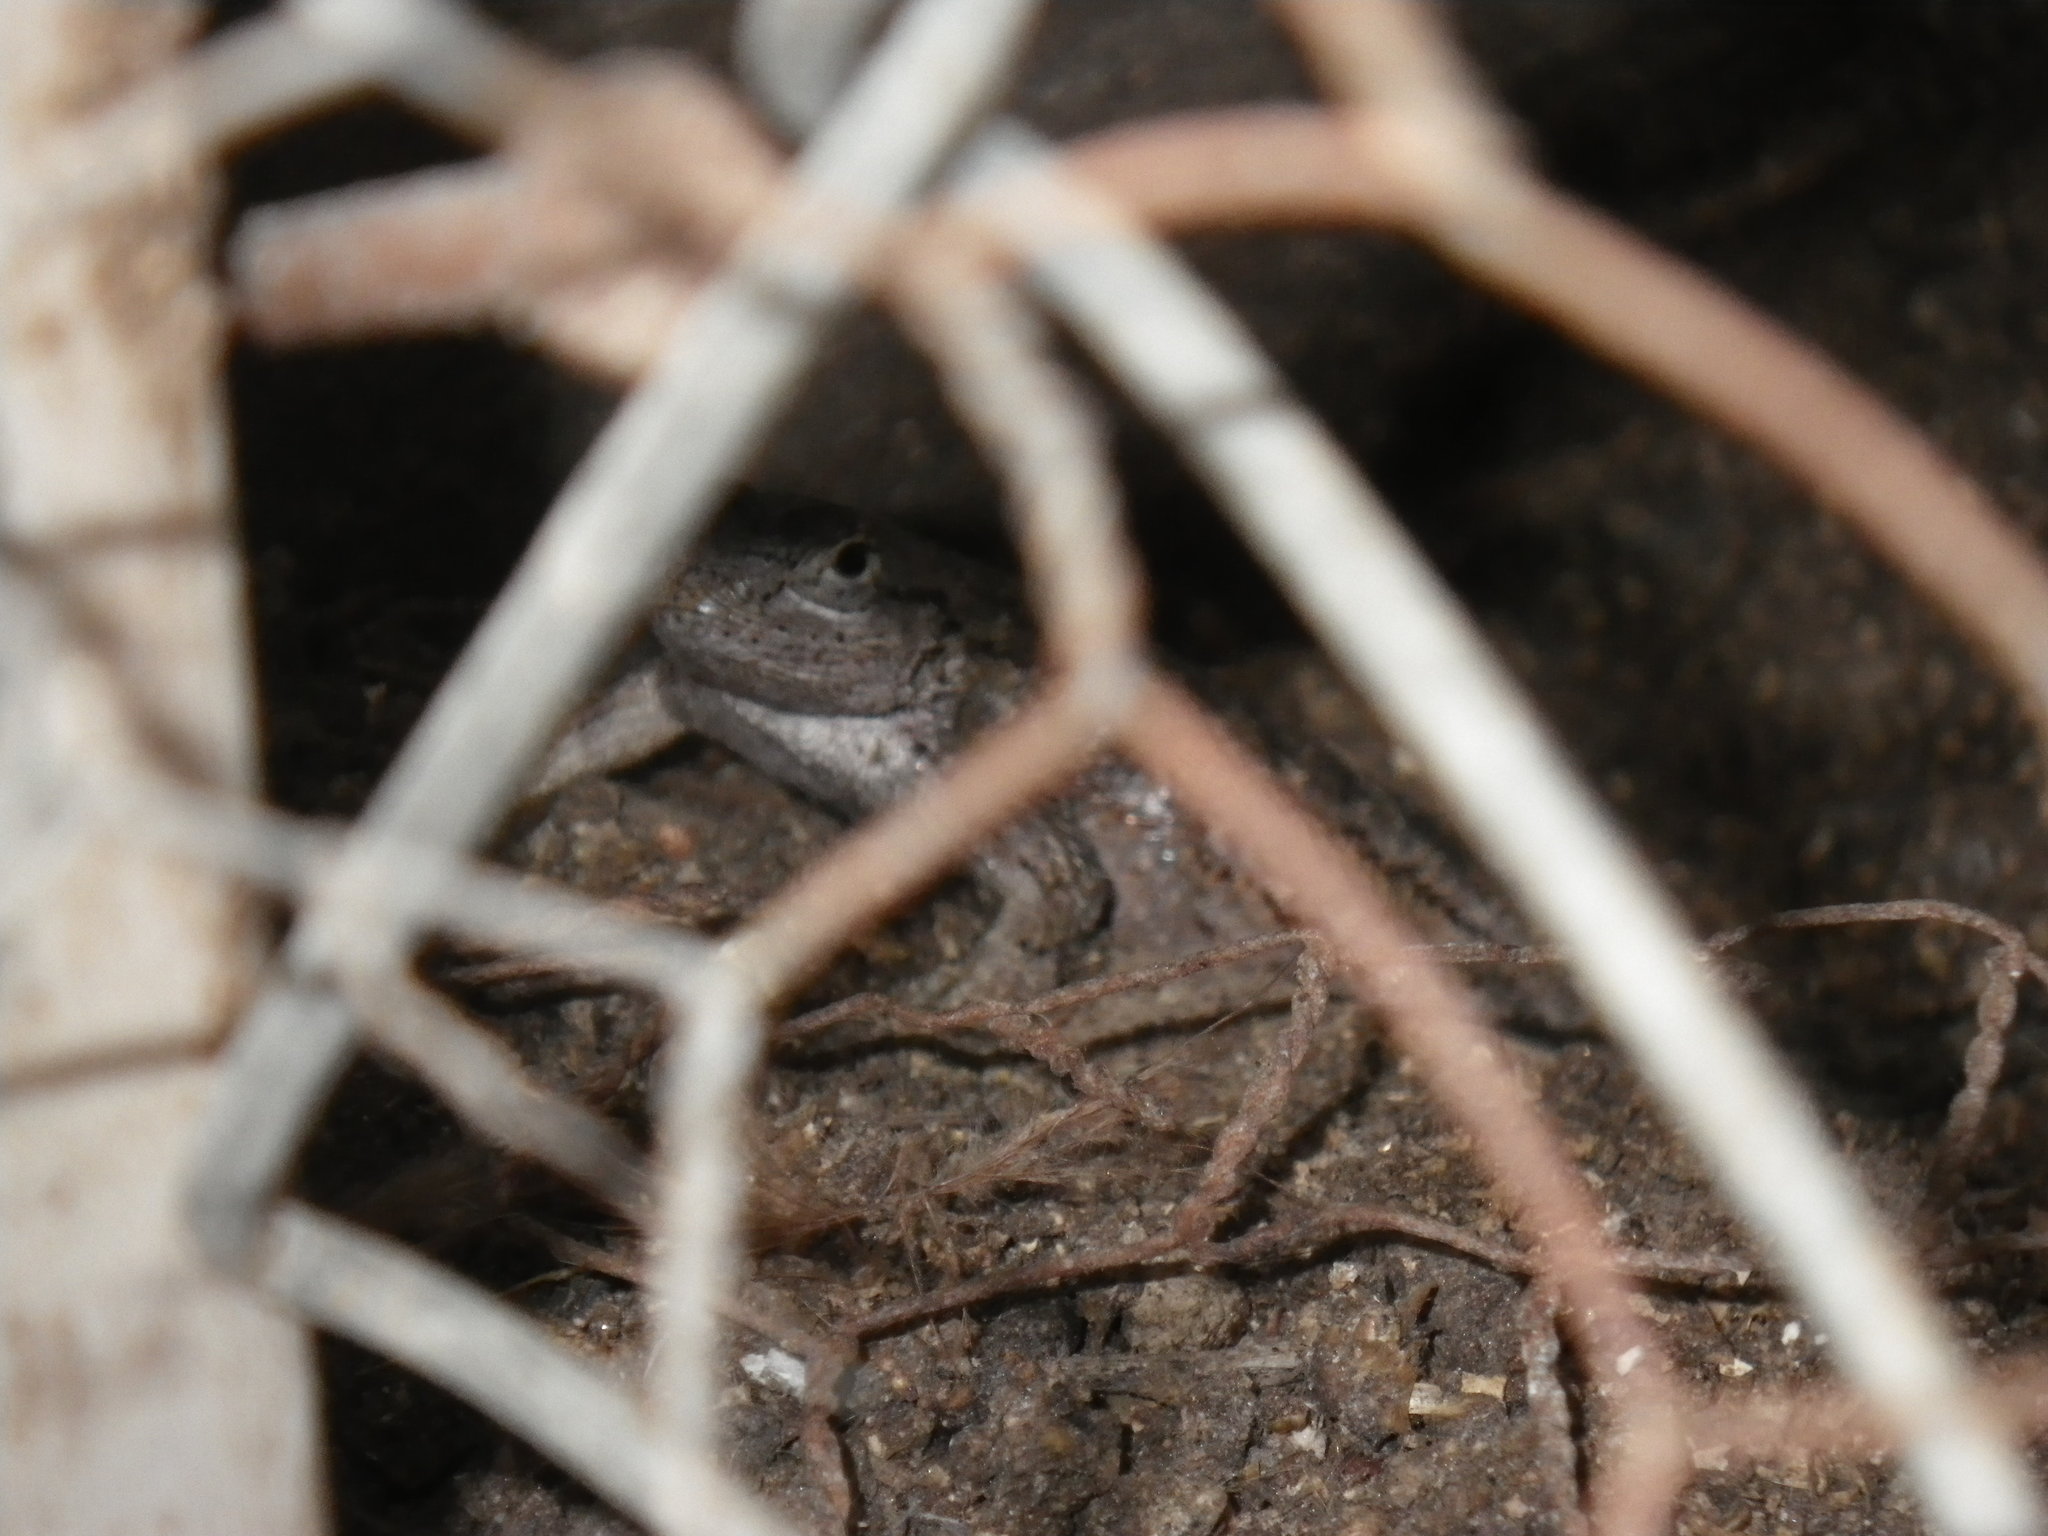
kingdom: Animalia
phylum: Chordata
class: Squamata
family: Phrynosomatidae
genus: Sceloporus
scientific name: Sceloporus occidentalis
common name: Western fence lizard
